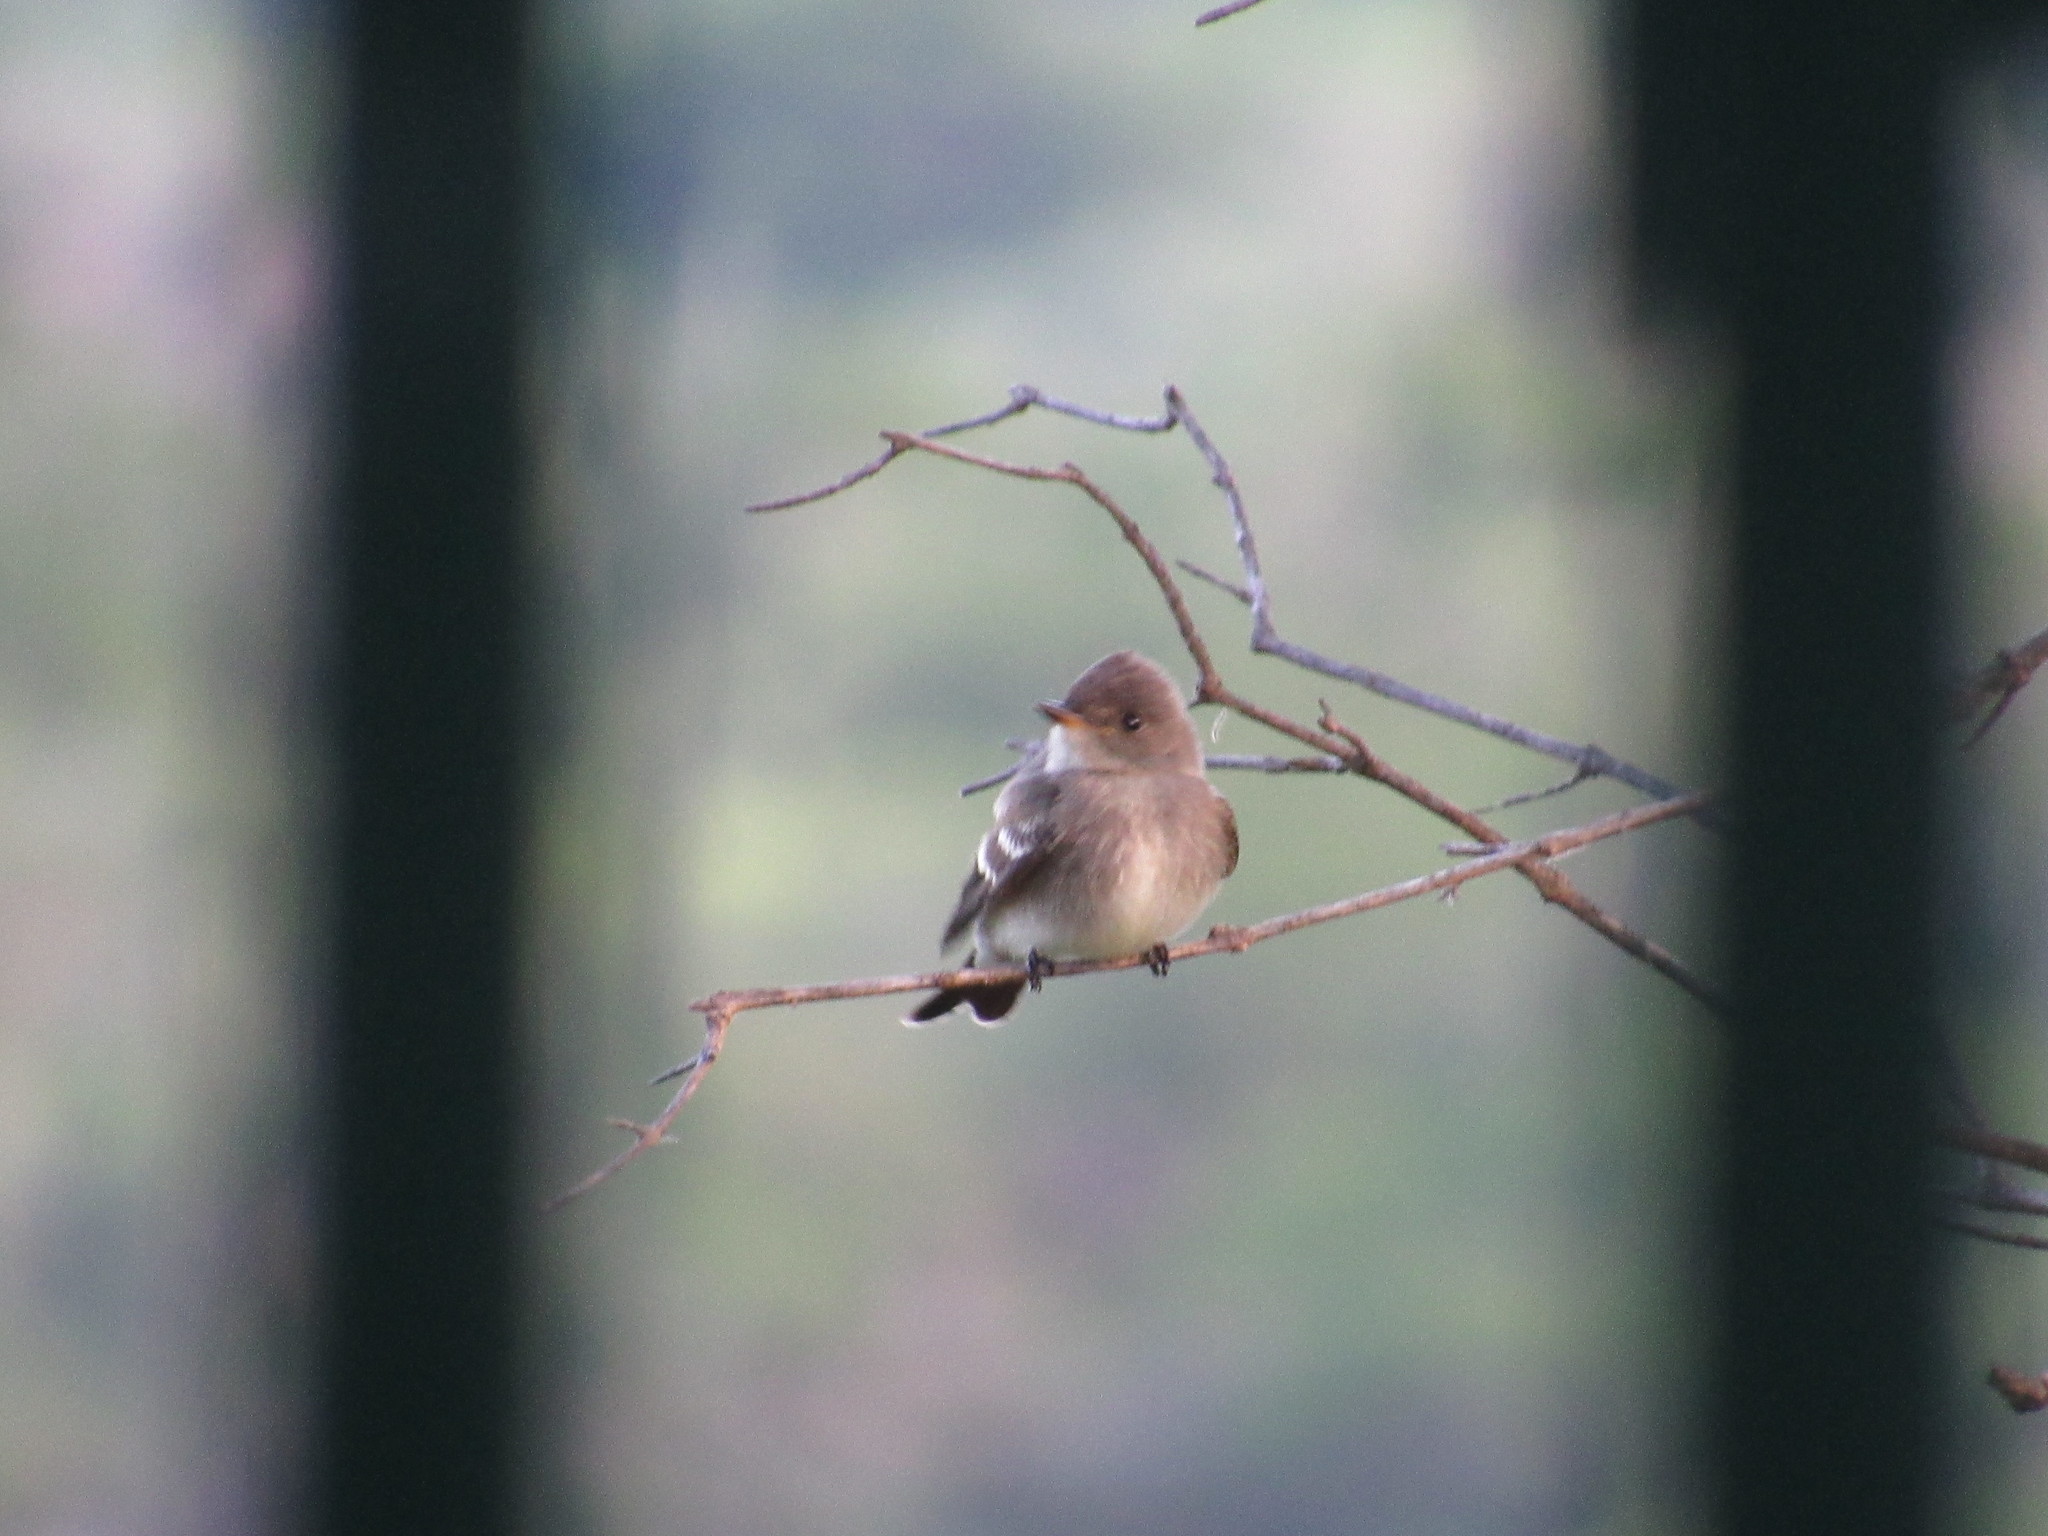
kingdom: Animalia
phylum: Chordata
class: Aves
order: Passeriformes
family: Tyrannidae
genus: Contopus
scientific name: Contopus sordidulus
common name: Western wood-pewee
